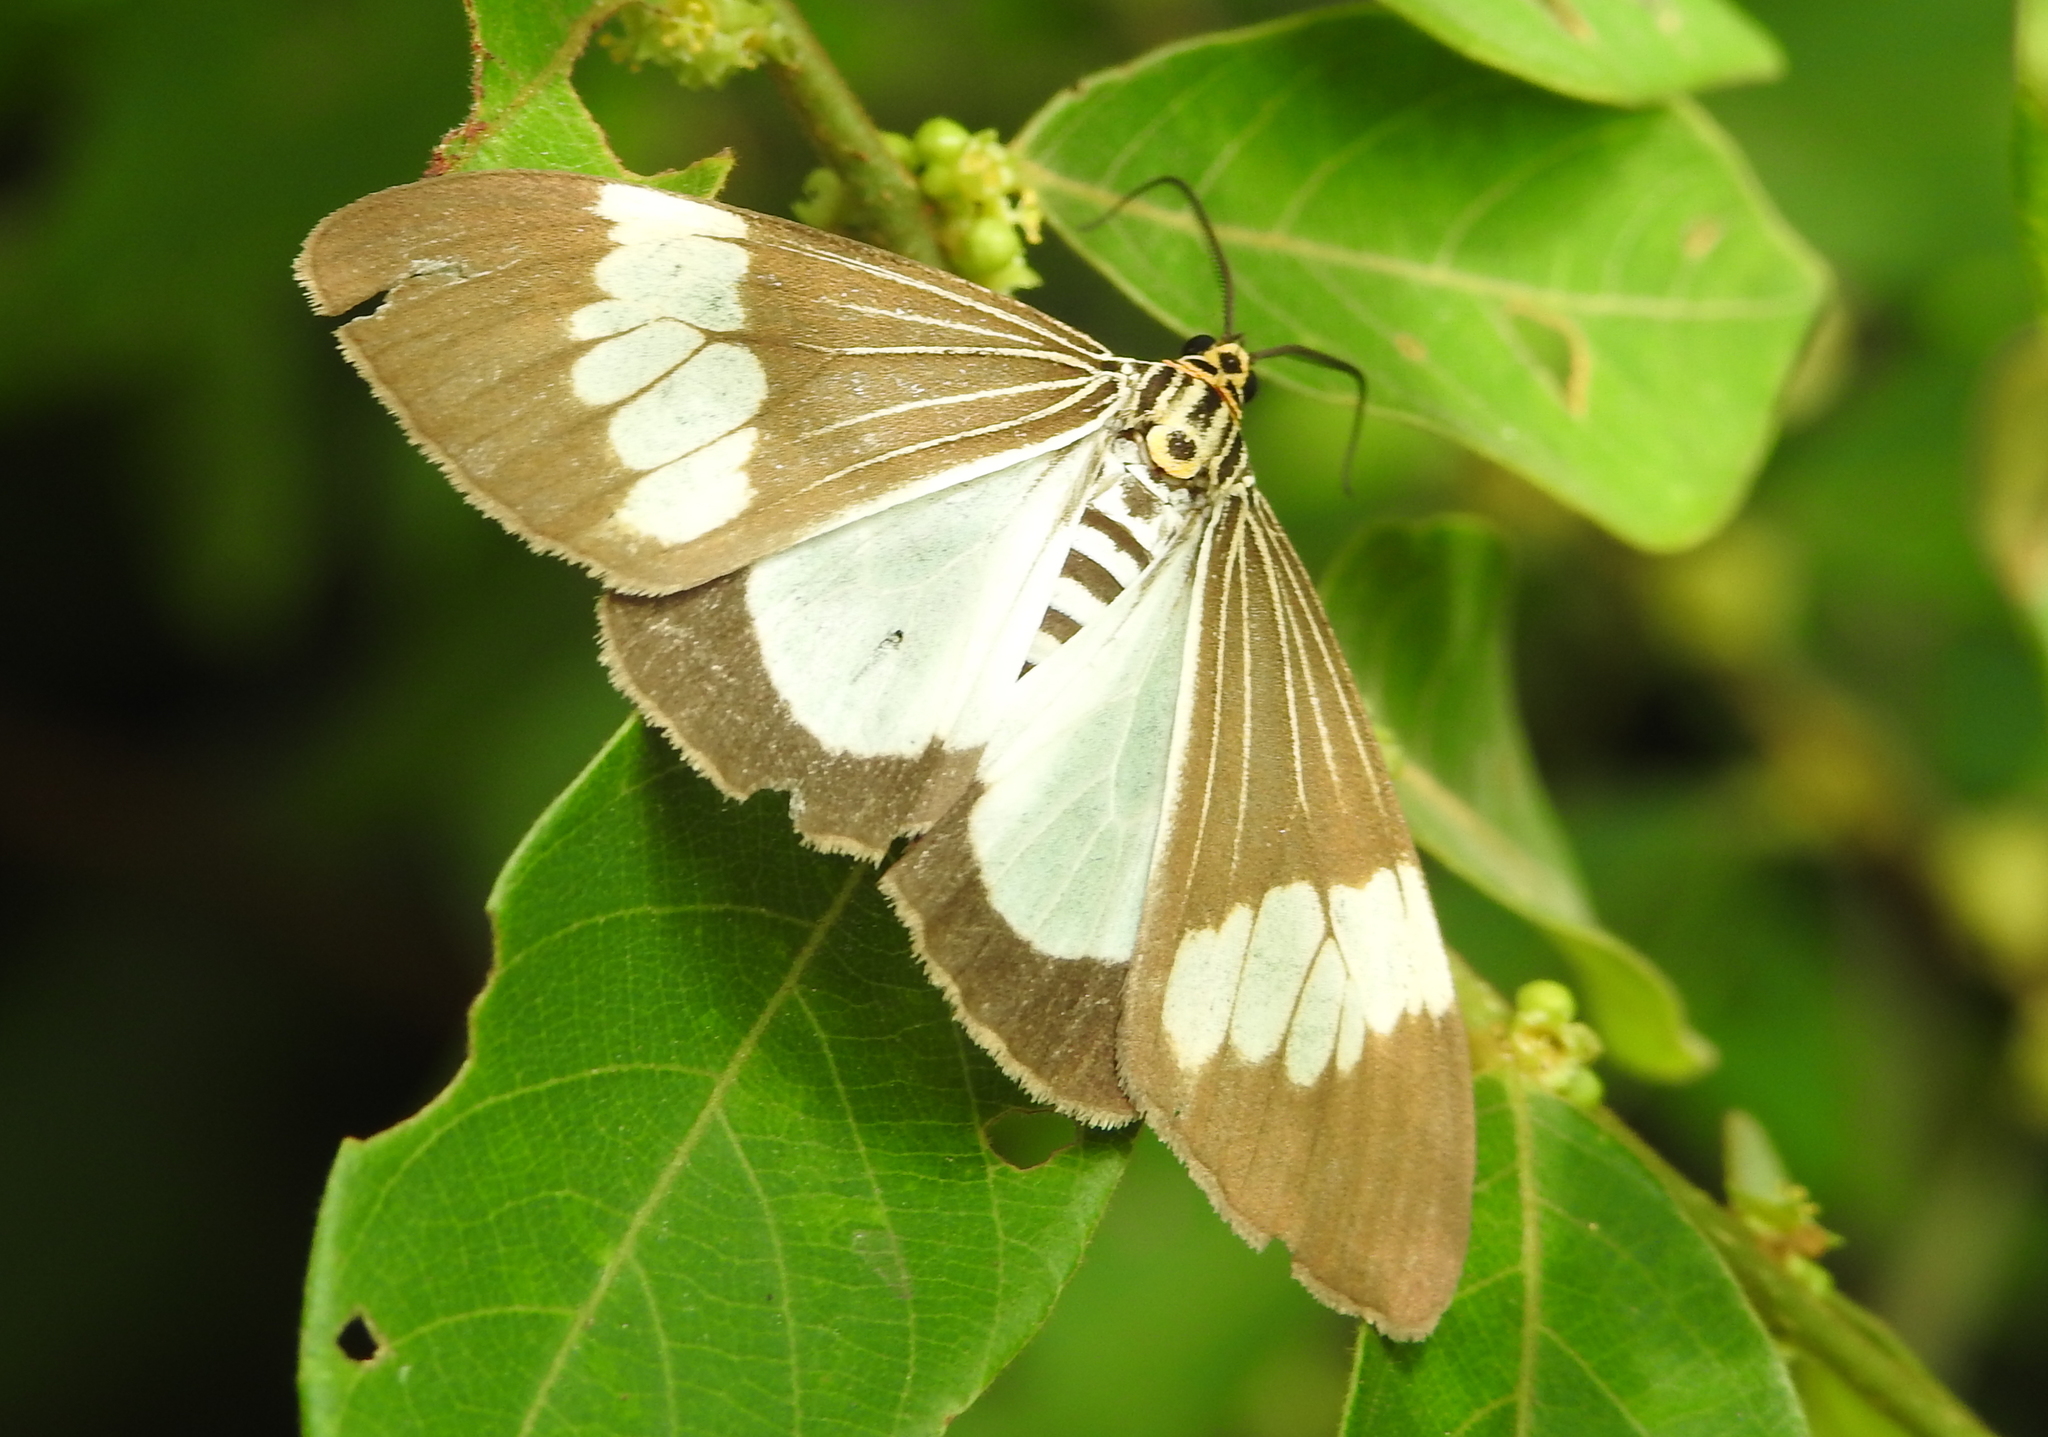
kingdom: Animalia
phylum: Arthropoda
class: Insecta
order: Lepidoptera
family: Erebidae
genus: Nyctemera
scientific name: Nyctemera baulus
